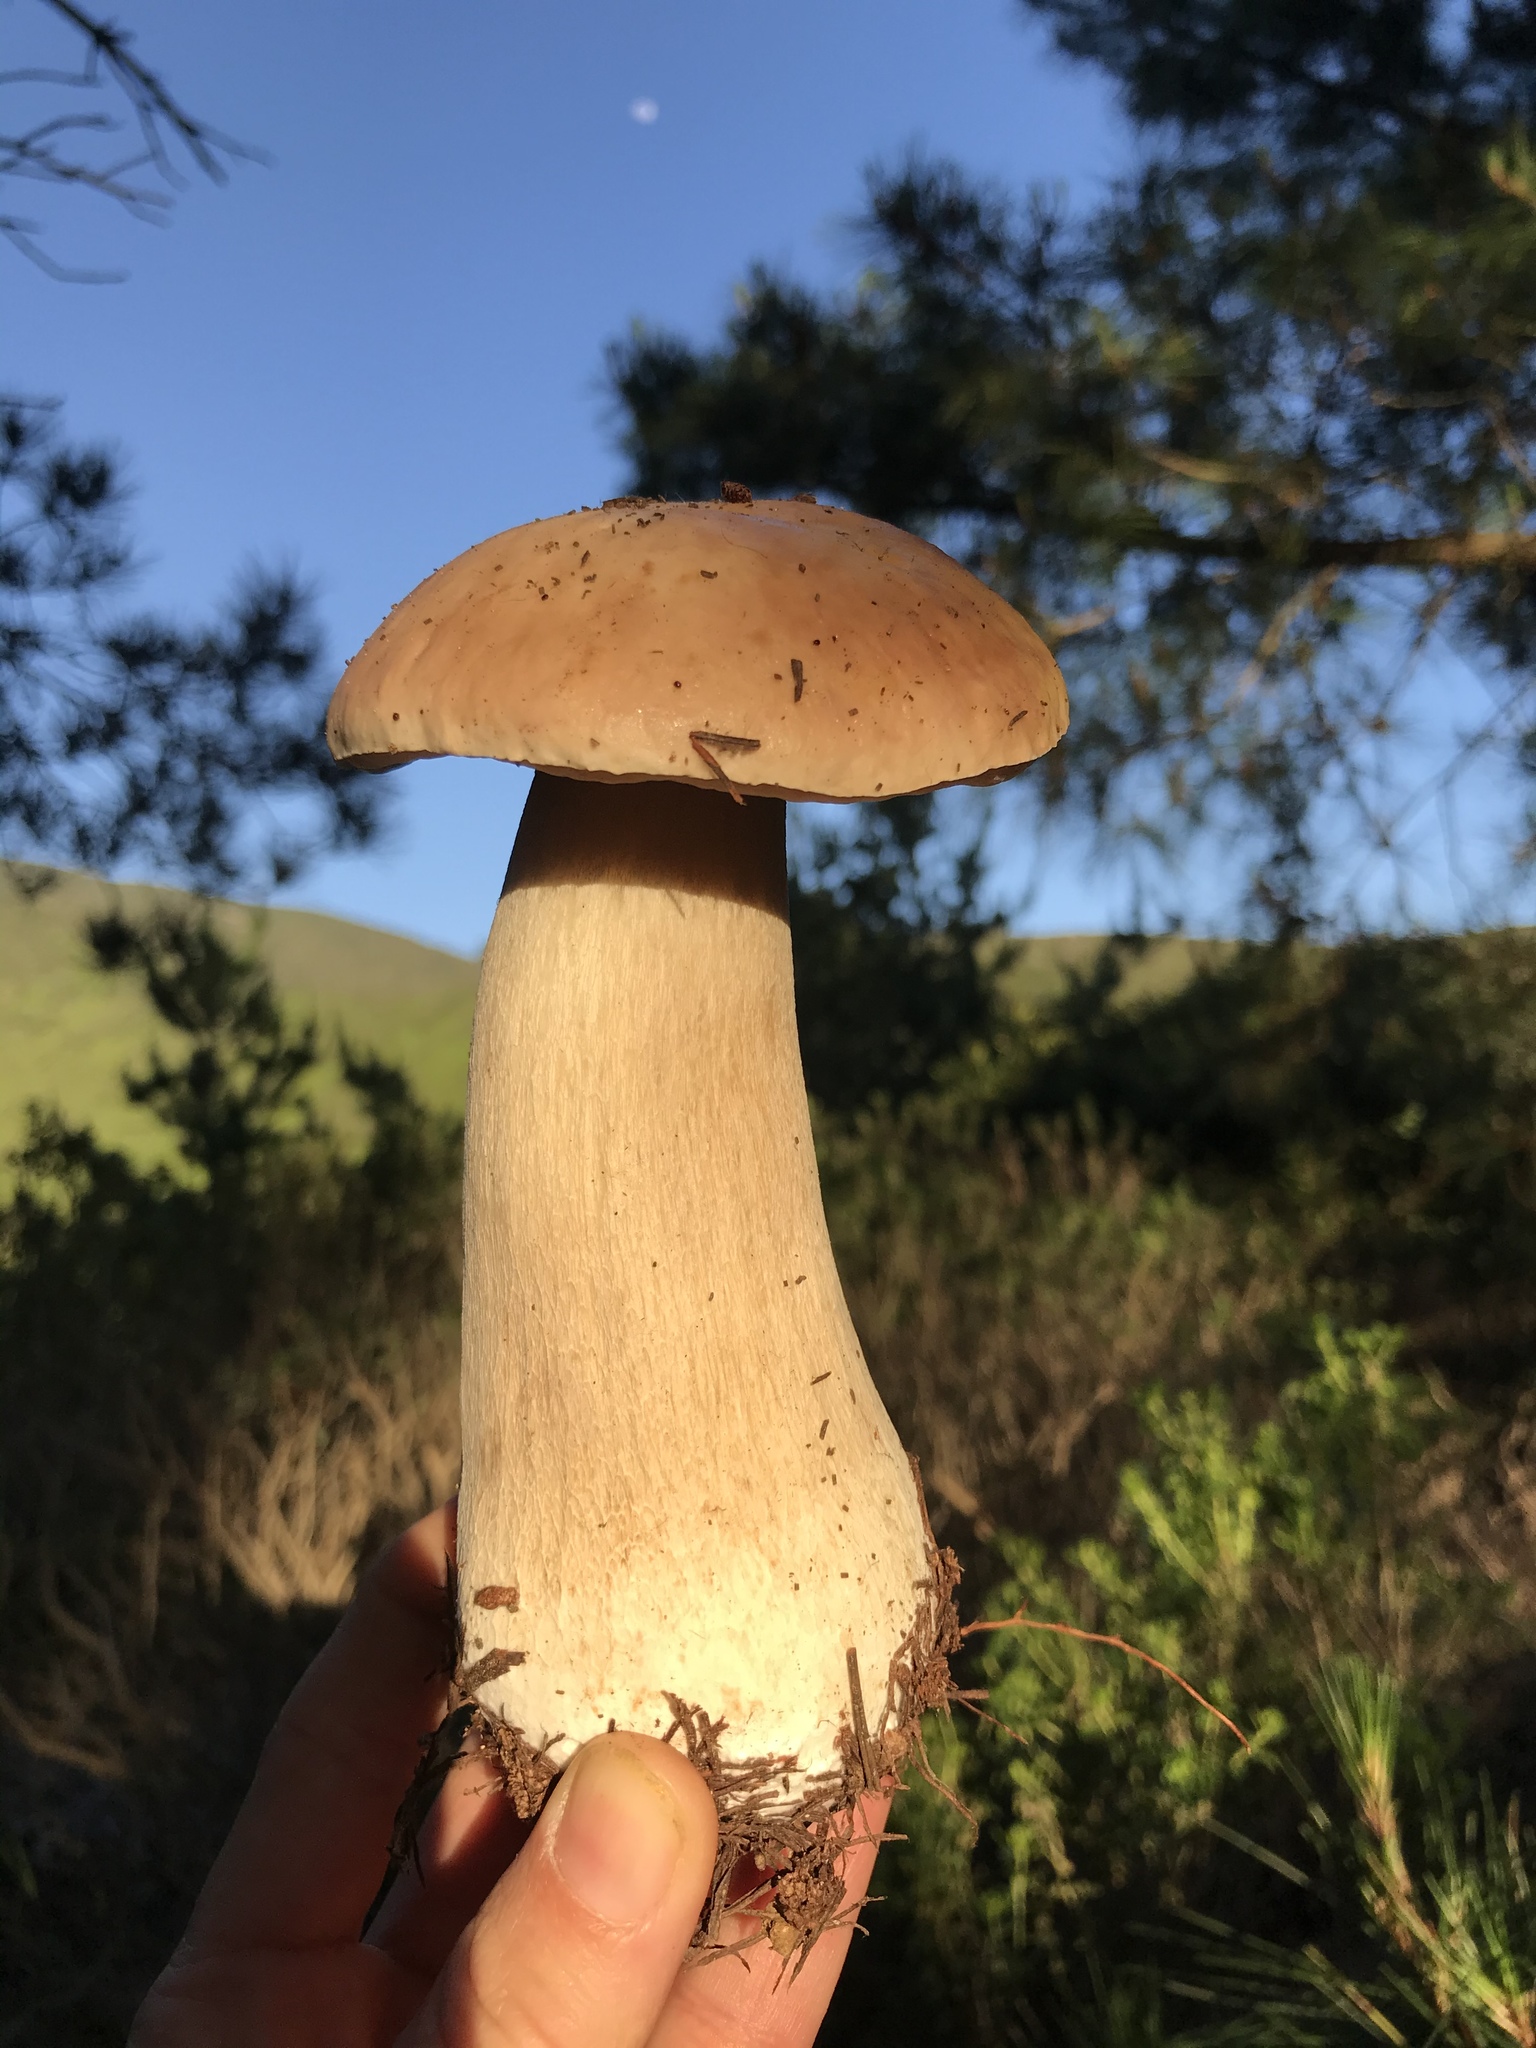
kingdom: Fungi
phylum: Basidiomycota
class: Agaricomycetes
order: Boletales
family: Boletaceae
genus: Boletus
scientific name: Boletus edulis
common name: Cep
